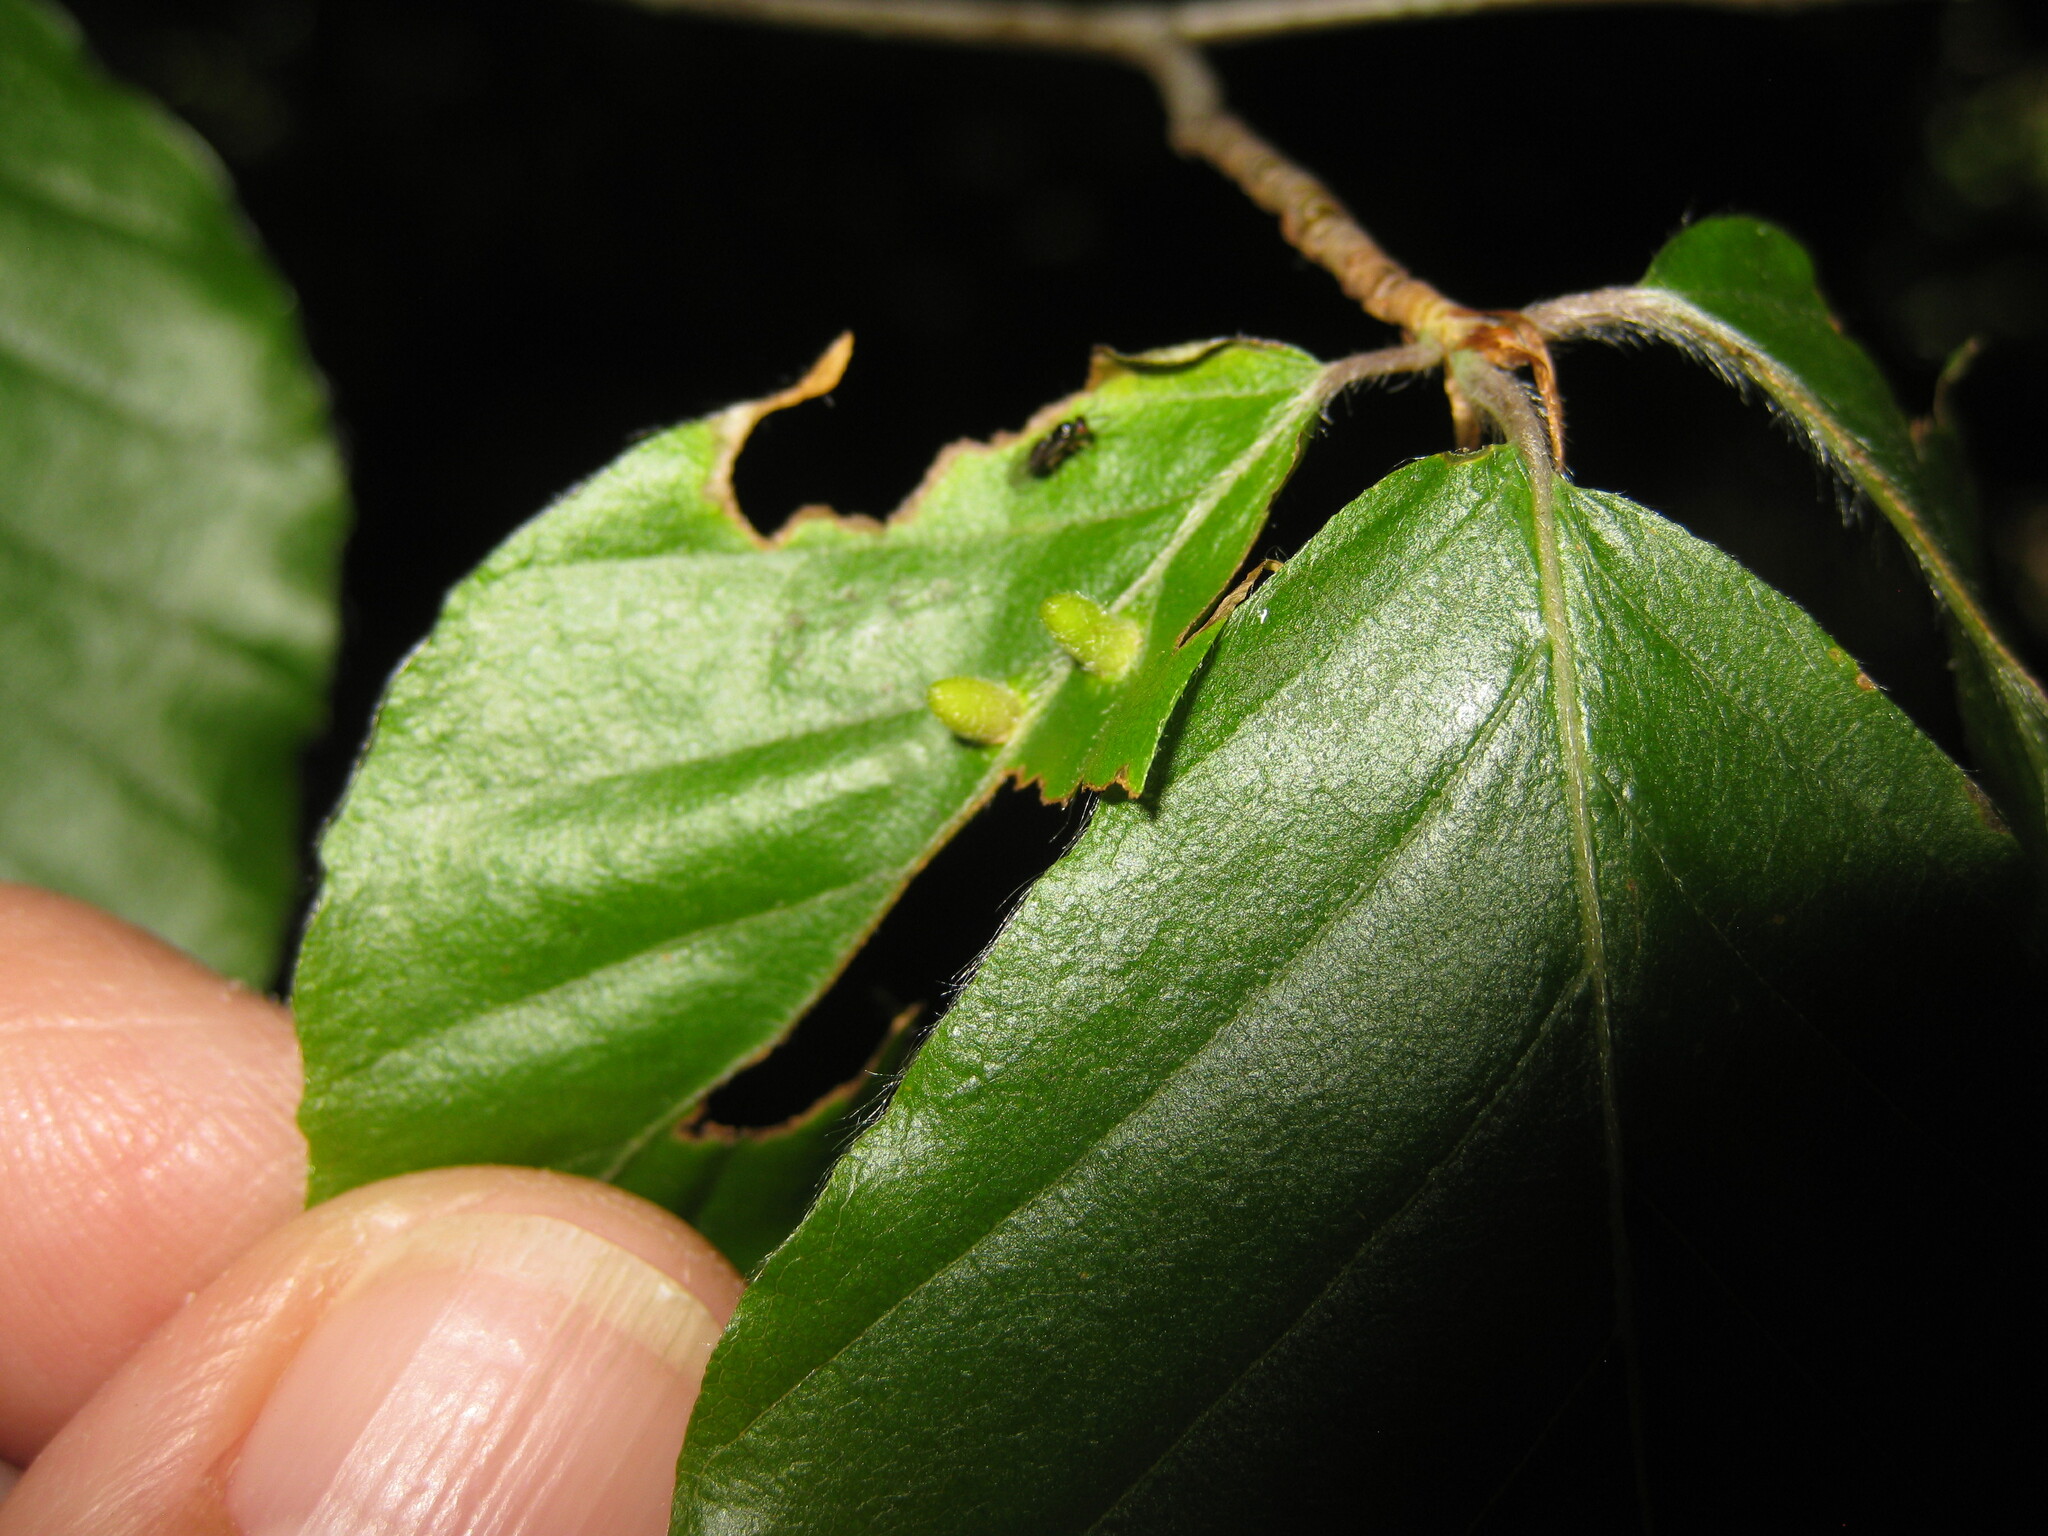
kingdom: Animalia
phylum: Arthropoda
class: Insecta
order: Diptera
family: Cecidomyiidae
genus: Hartigiola
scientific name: Hartigiola annulipes
